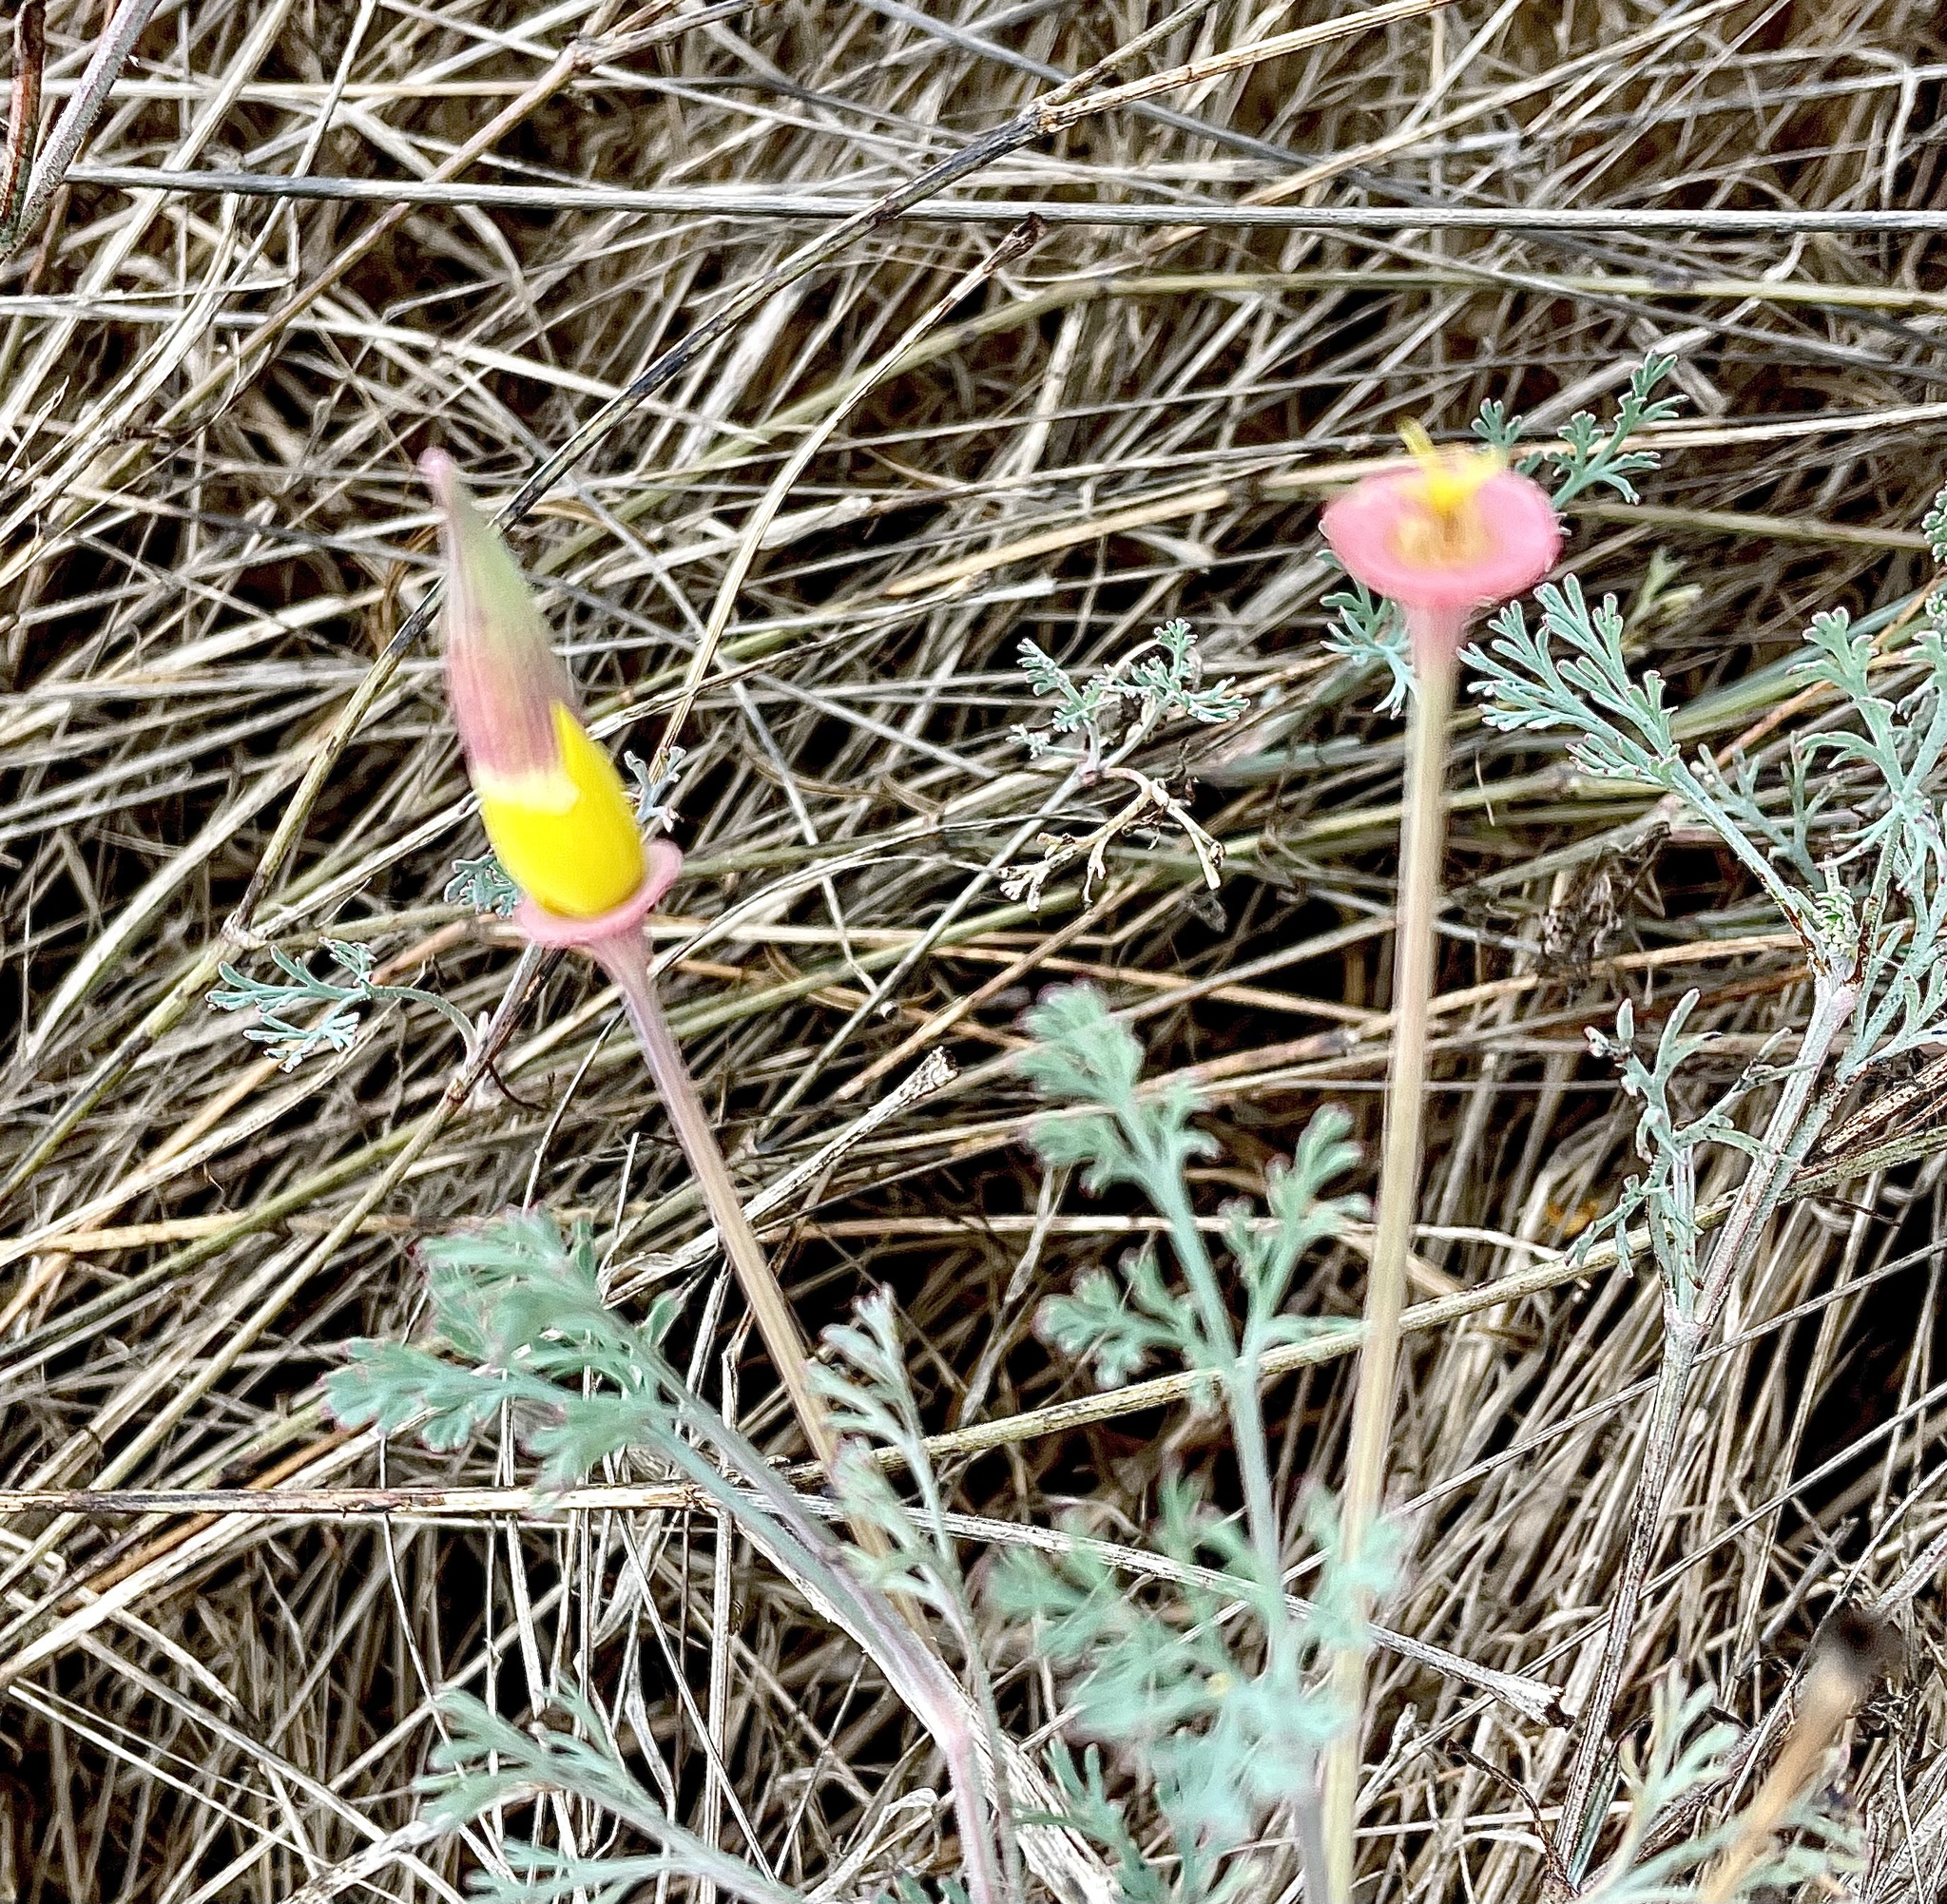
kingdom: Plantae
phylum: Tracheophyta
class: Magnoliopsida
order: Ranunculales
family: Papaveraceae
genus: Eschscholzia
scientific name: Eschscholzia californica
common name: California poppy
